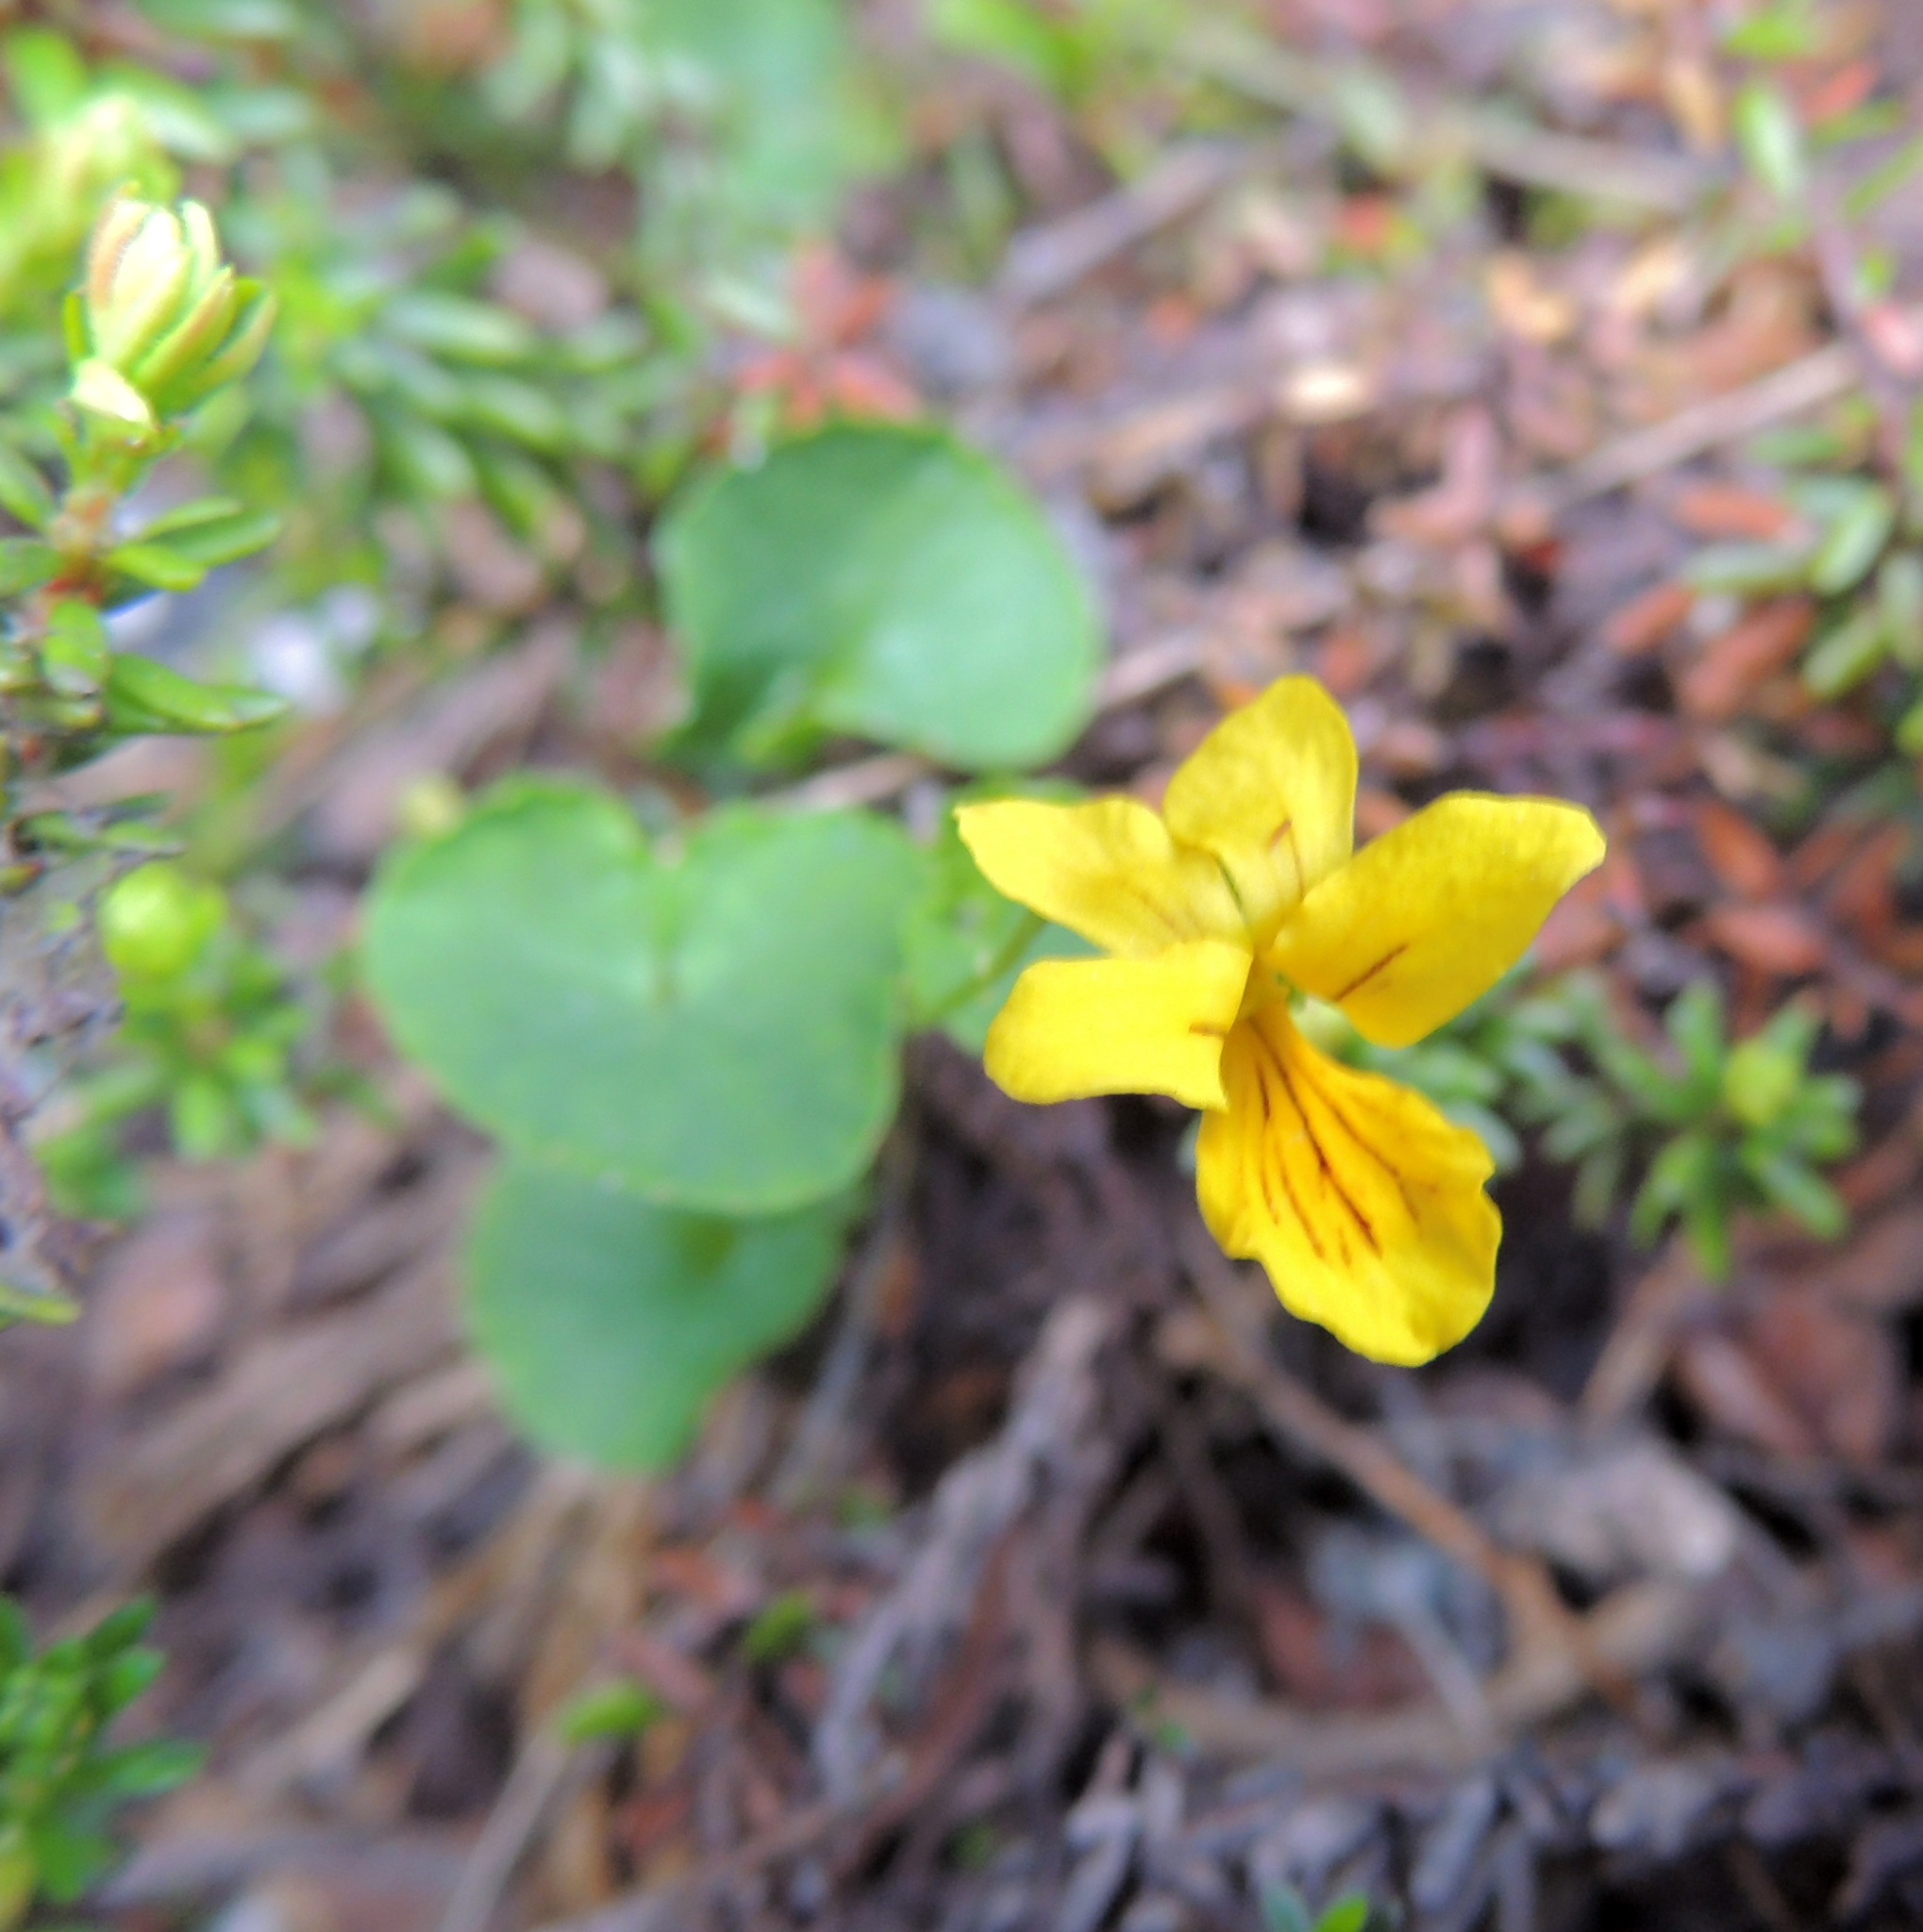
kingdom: Plantae
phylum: Tracheophyta
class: Magnoliopsida
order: Malpighiales
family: Violaceae
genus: Viola
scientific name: Viola biflora
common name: Alpine yellow violet
